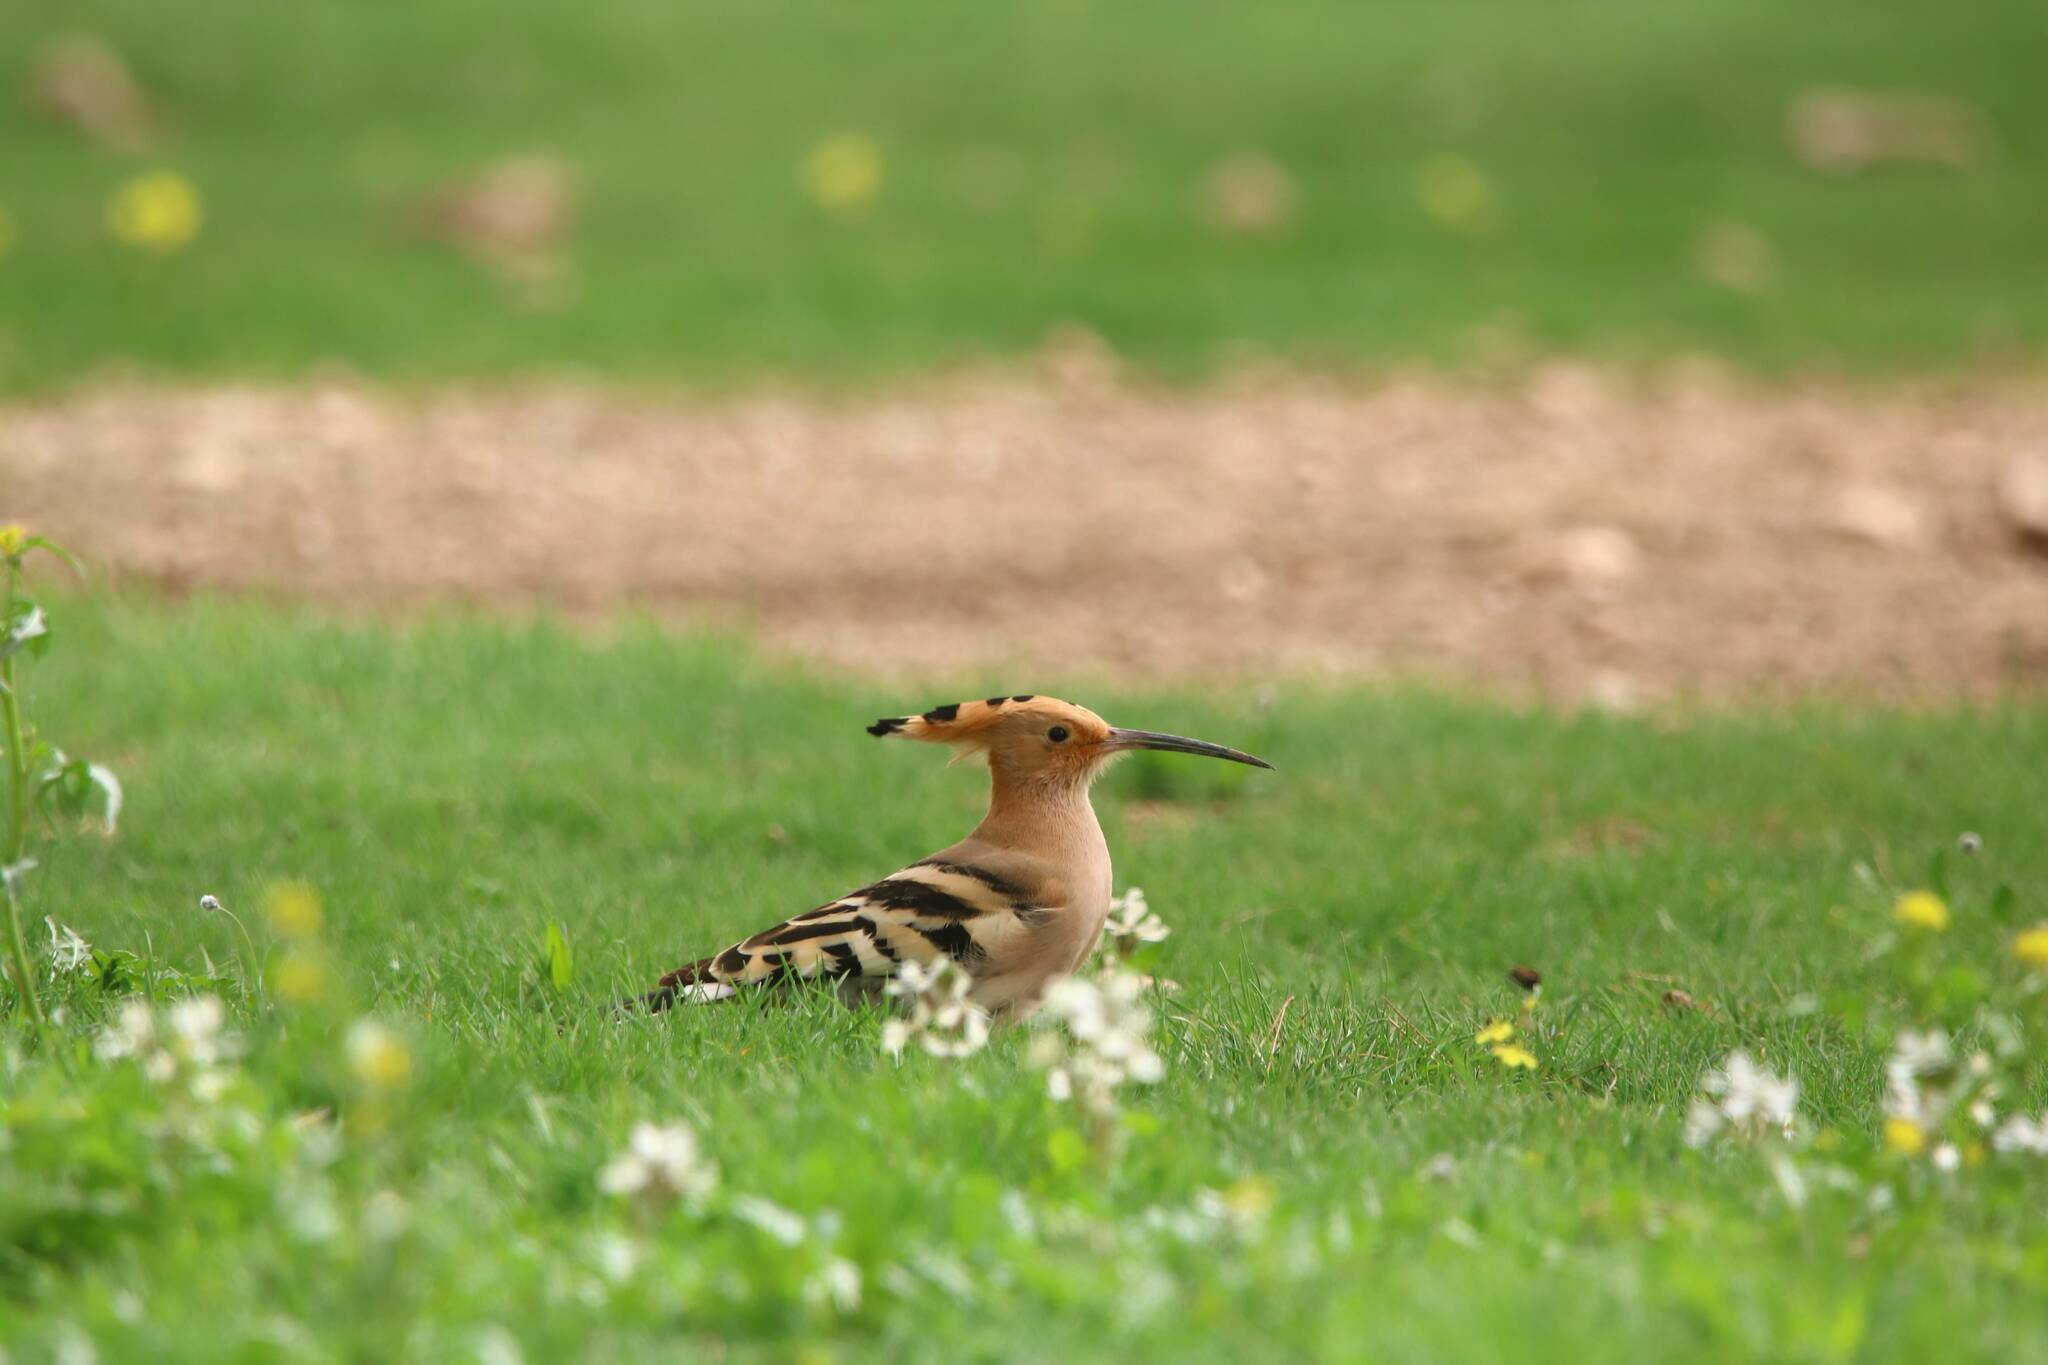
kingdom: Animalia
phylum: Chordata
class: Aves
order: Bucerotiformes
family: Upupidae
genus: Upupa
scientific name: Upupa epops
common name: Eurasian hoopoe
